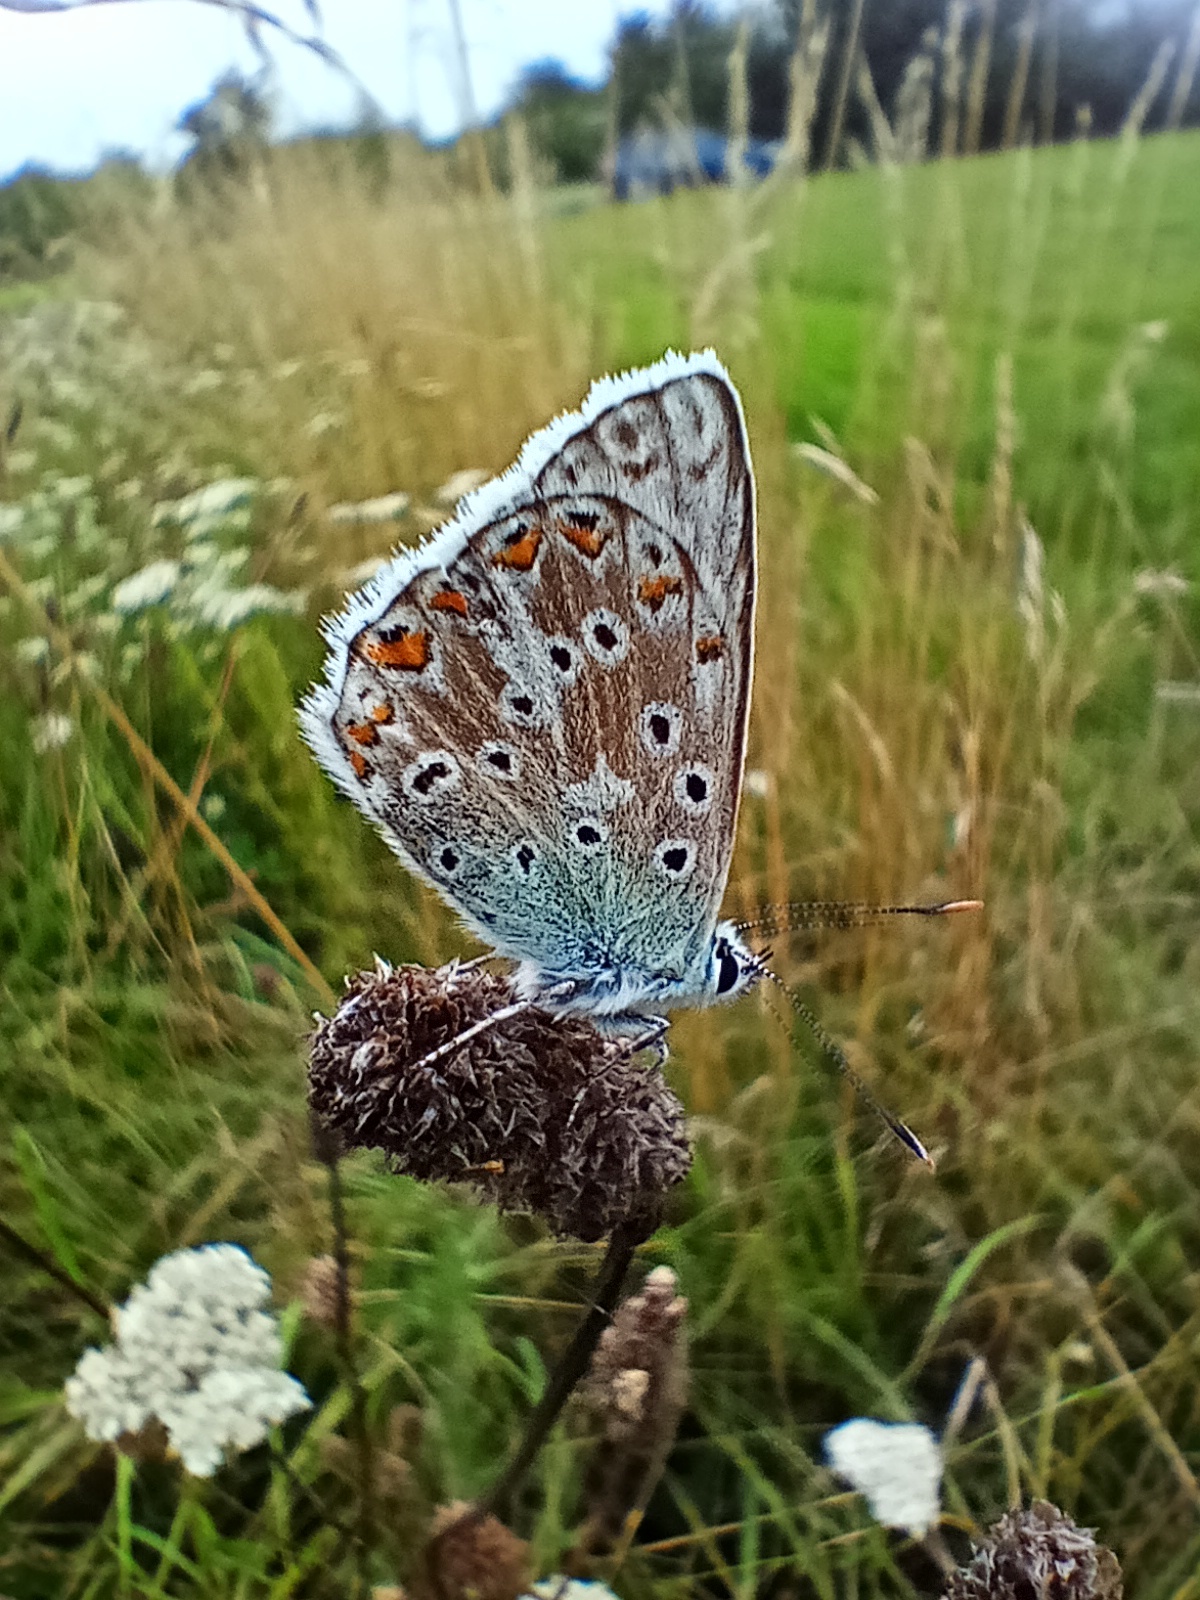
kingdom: Animalia
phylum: Arthropoda
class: Insecta
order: Lepidoptera
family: Lycaenidae
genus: Lysandra
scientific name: Lysandra coridon
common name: Chalkhill blue
